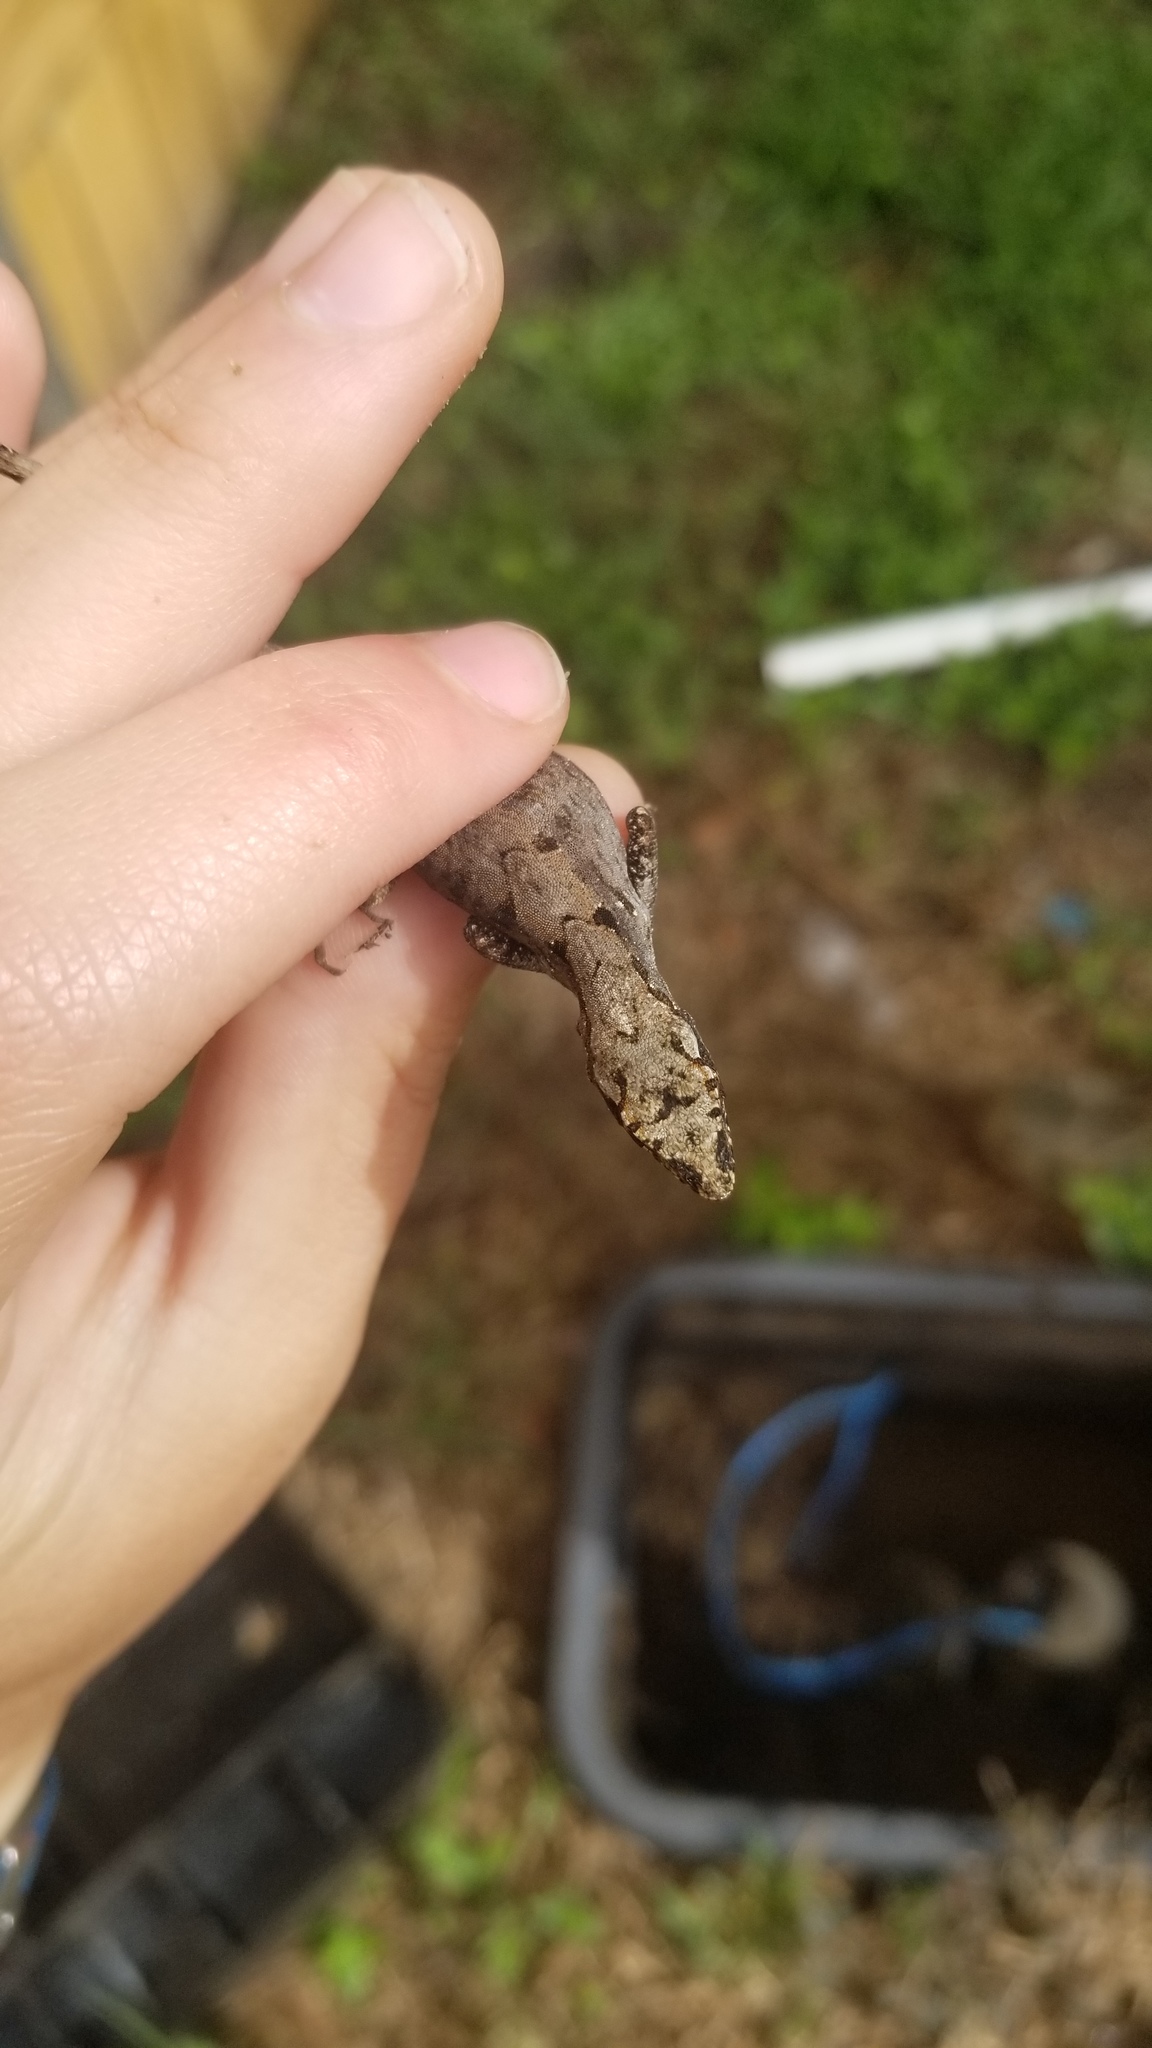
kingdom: Animalia
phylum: Chordata
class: Squamata
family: Dactyloidae
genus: Anolis
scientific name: Anolis sagrei
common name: Brown anole
